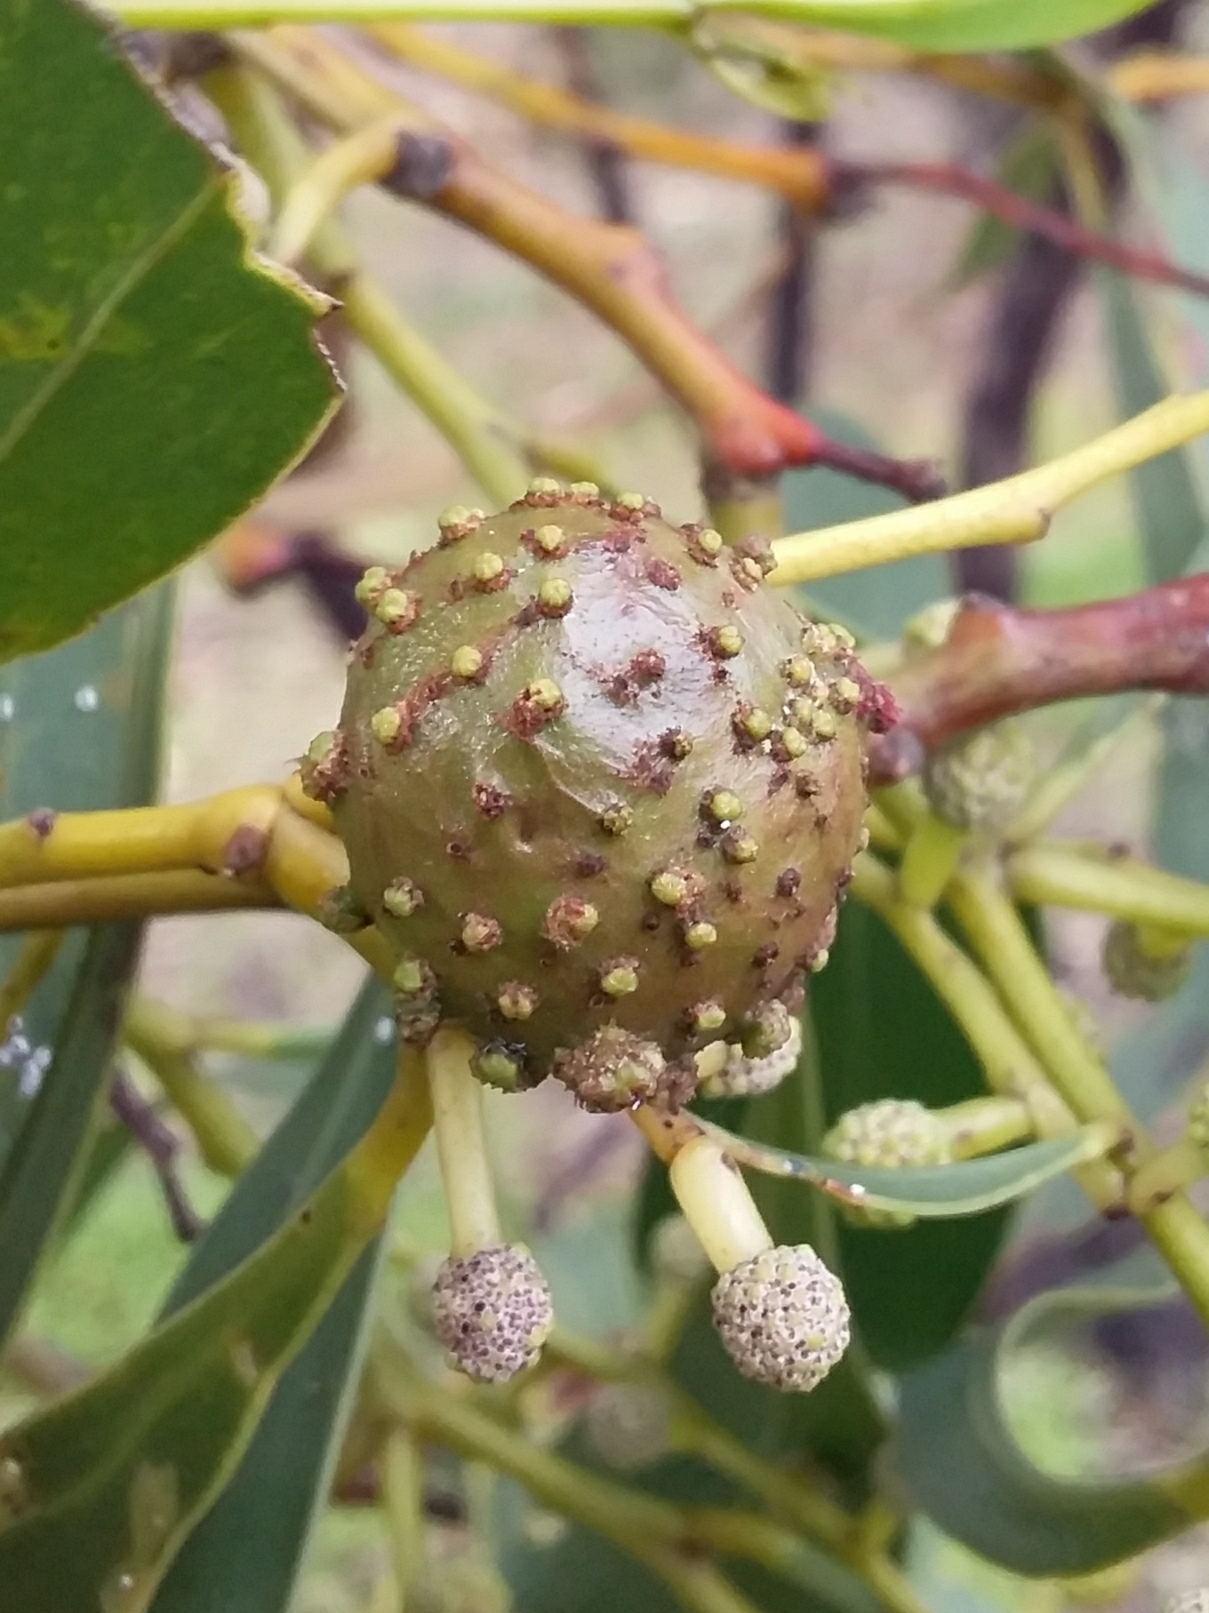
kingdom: Animalia
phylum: Arthropoda
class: Insecta
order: Hymenoptera
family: Pteromalidae
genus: Trichilogaster
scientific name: Trichilogaster signiventris
